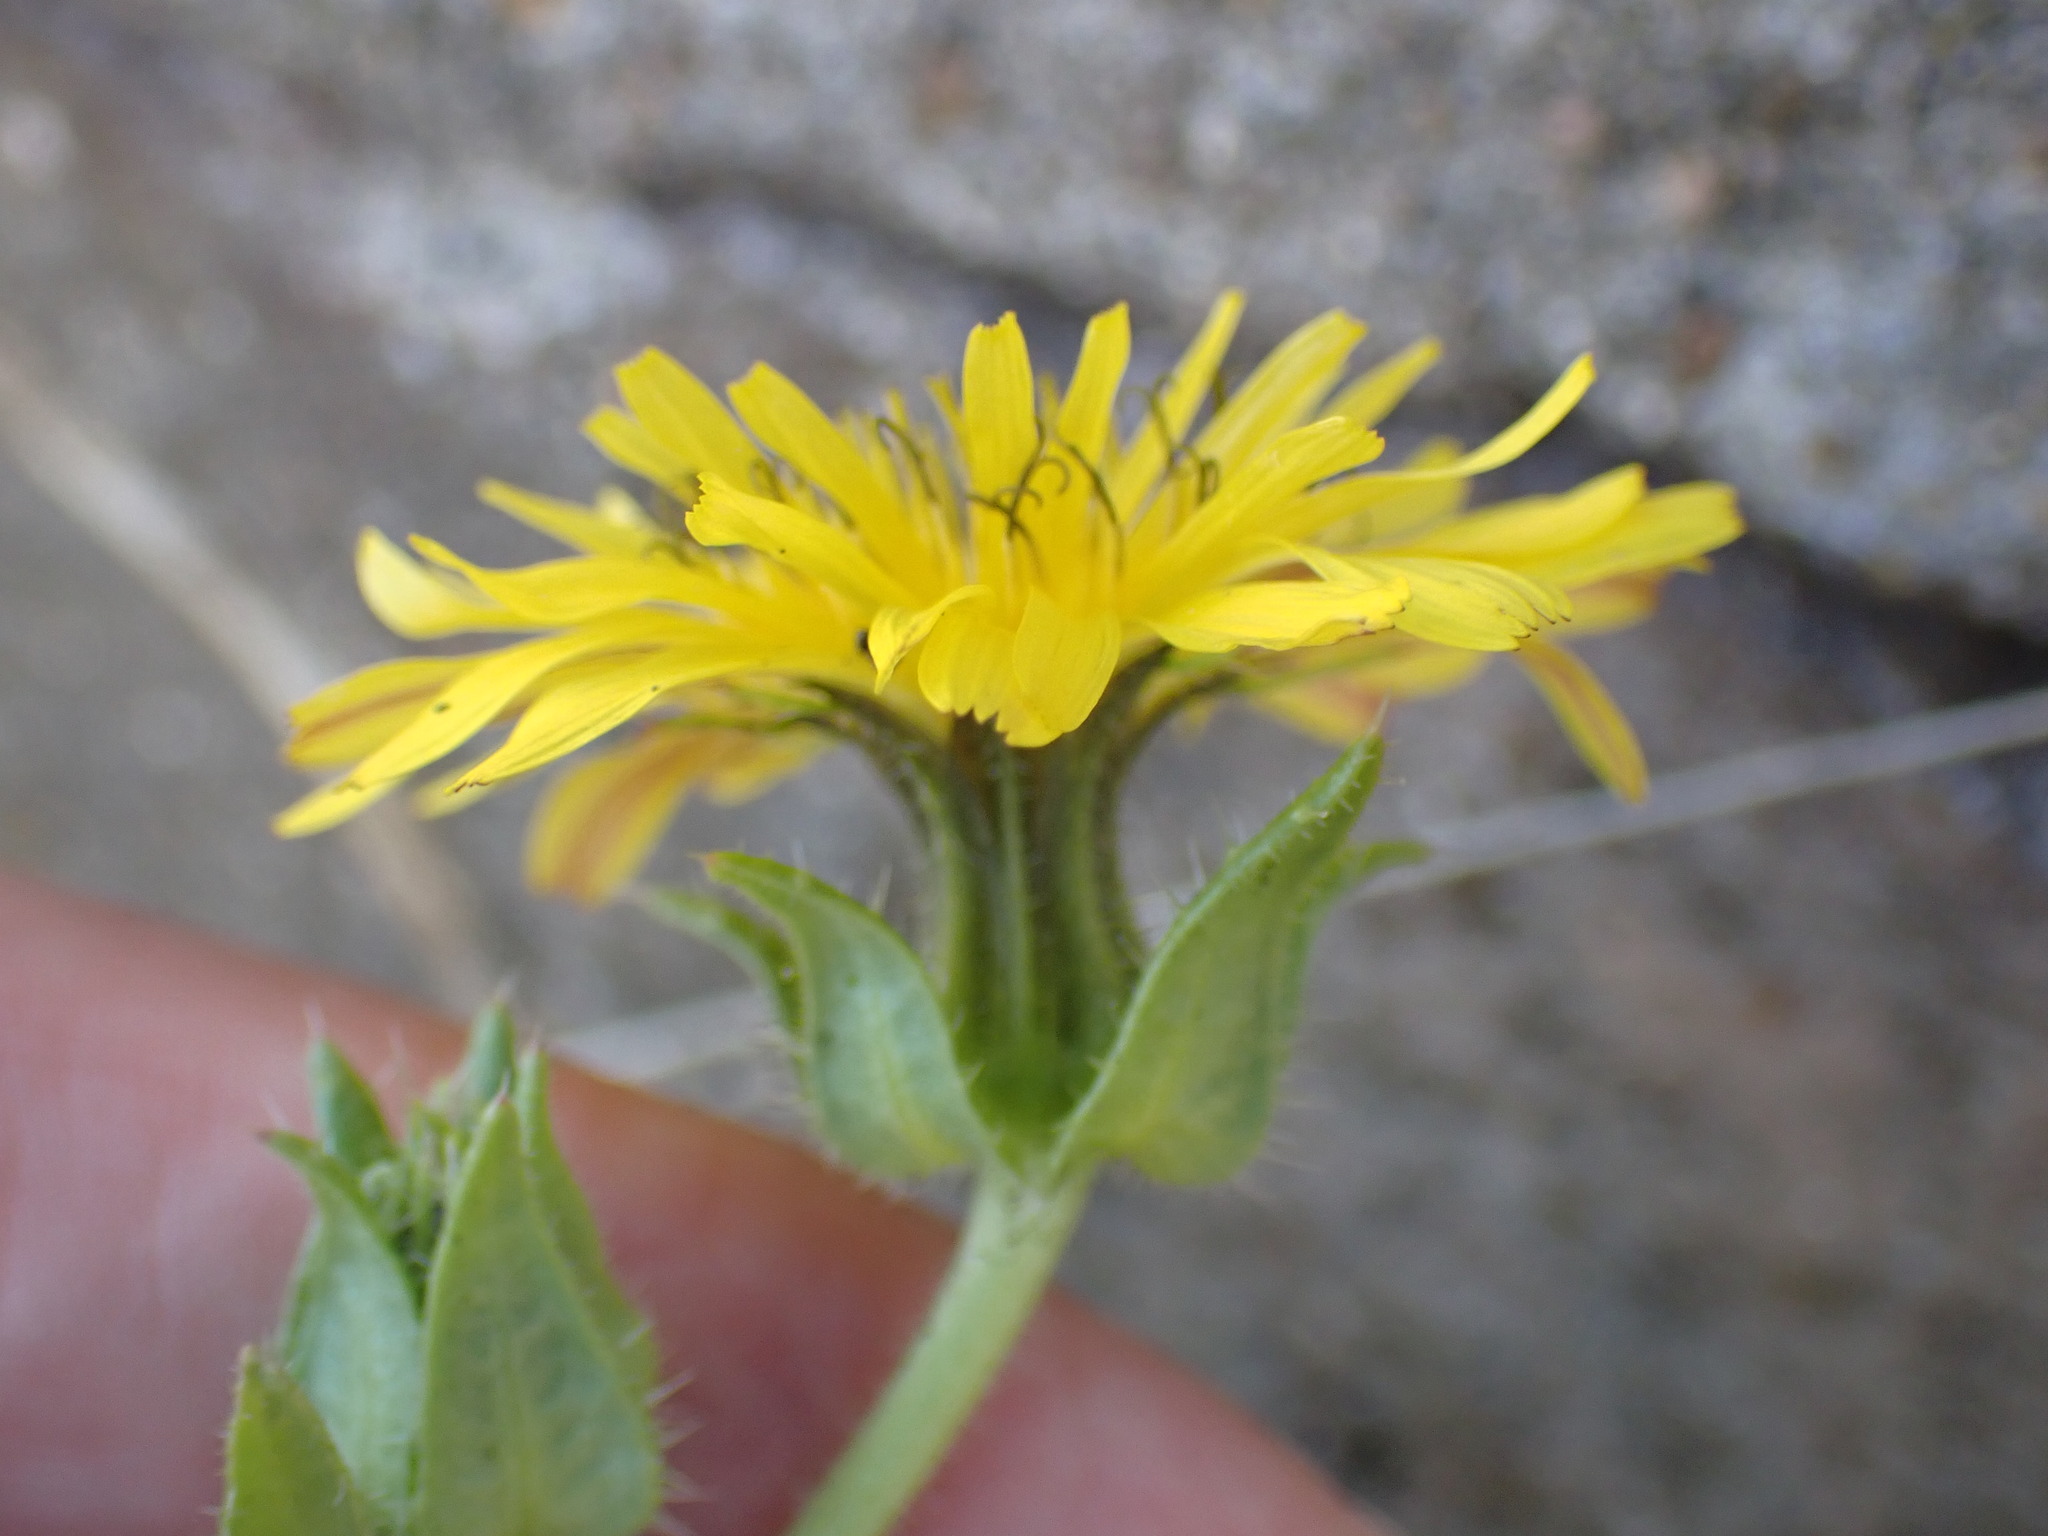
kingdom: Plantae
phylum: Tracheophyta
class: Magnoliopsida
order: Asterales
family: Asteraceae
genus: Helminthotheca
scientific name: Helminthotheca echioides
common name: Ox-tongue
